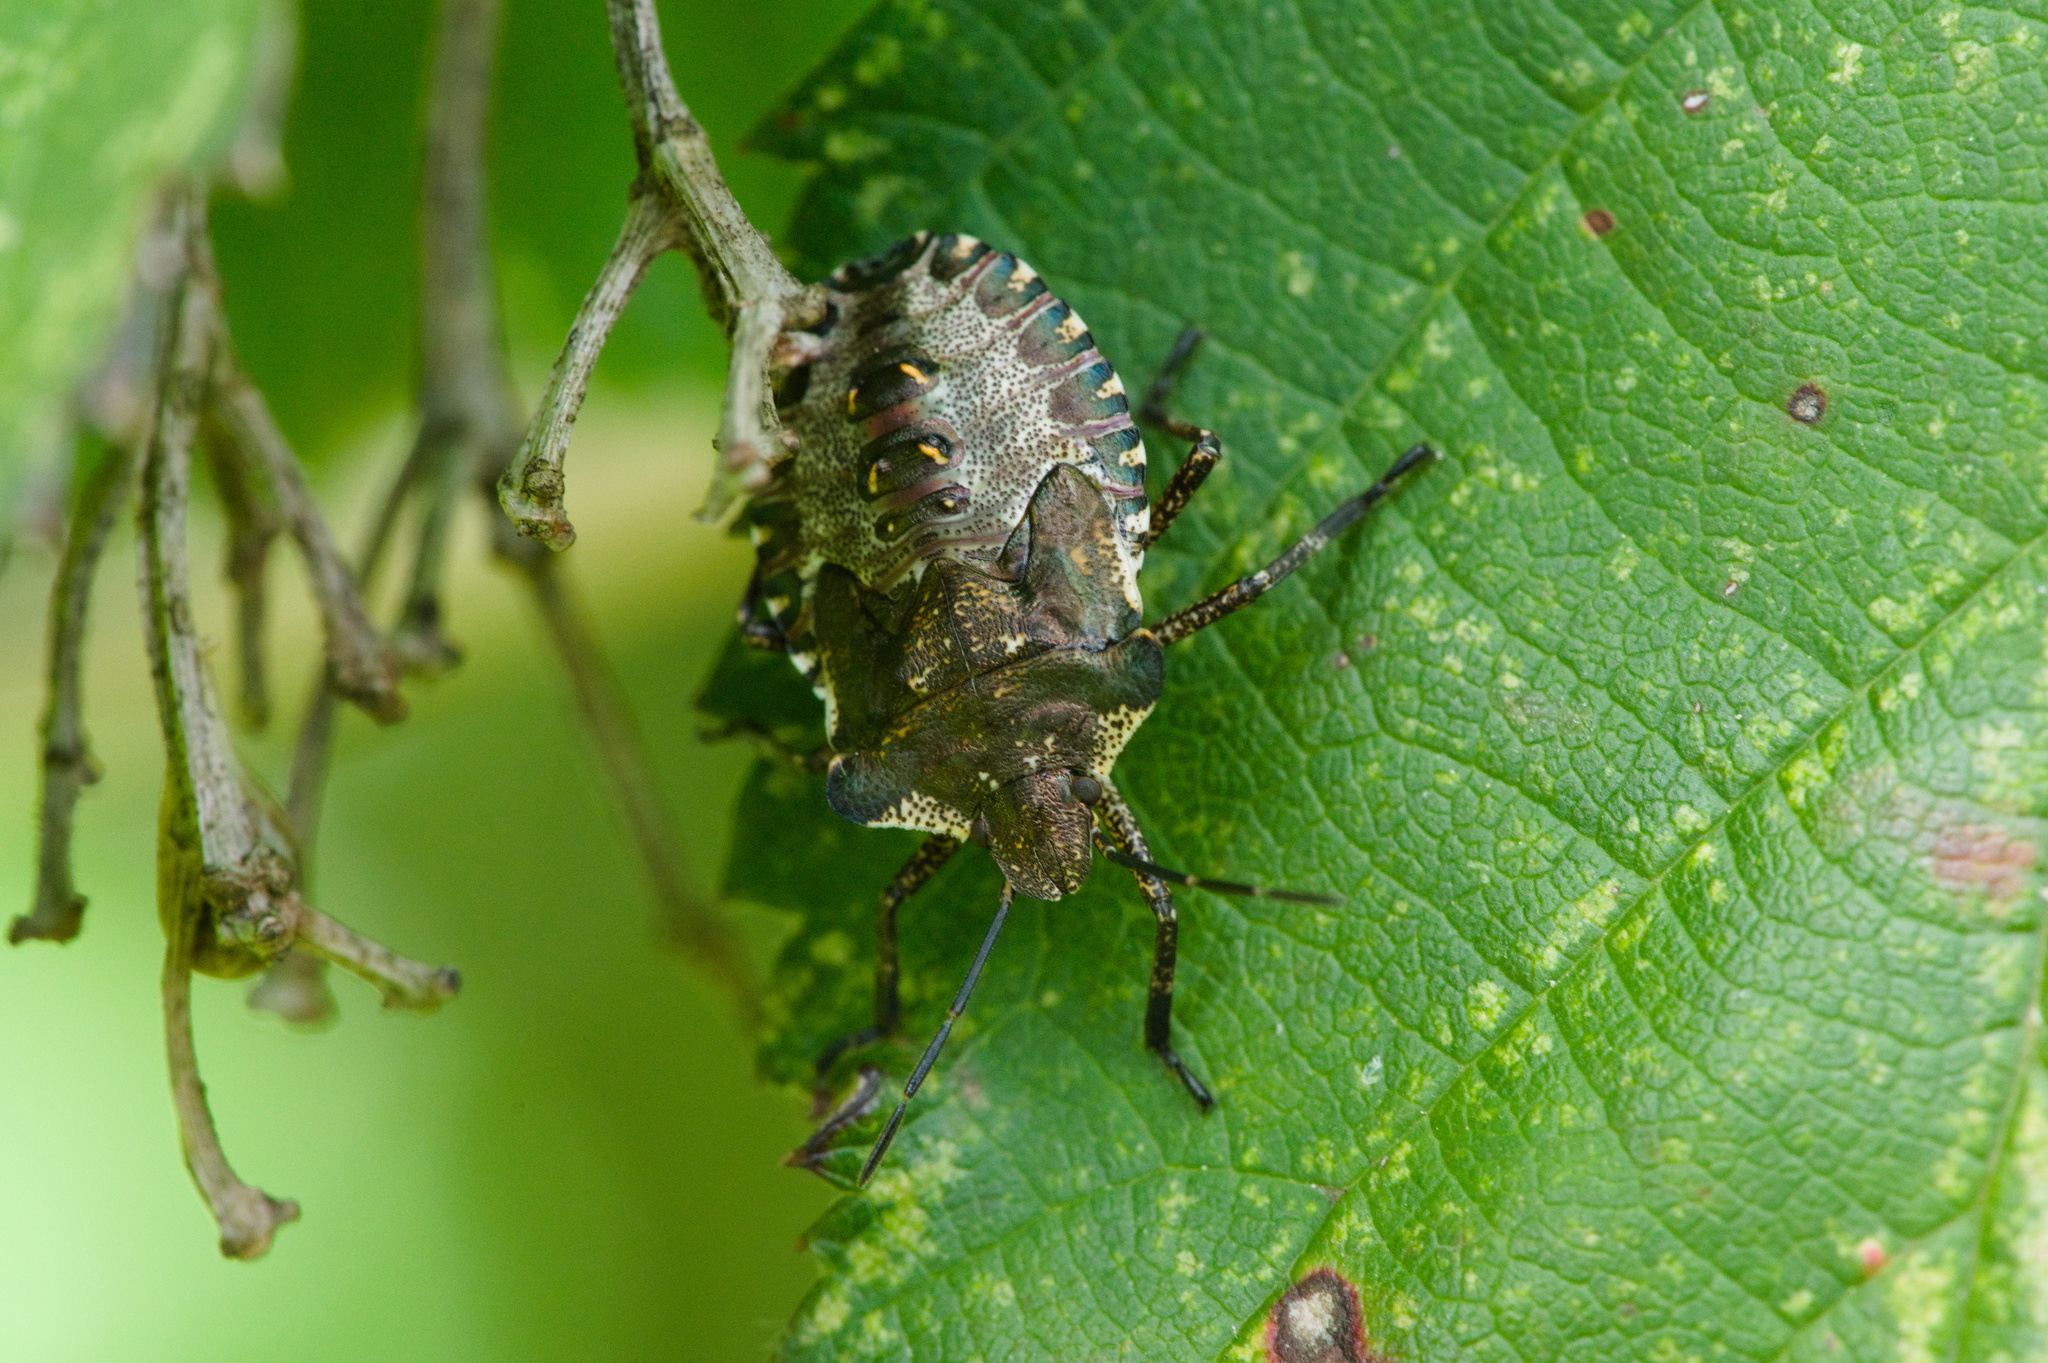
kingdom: Animalia
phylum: Arthropoda
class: Insecta
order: Hemiptera
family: Pentatomidae
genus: Pentatoma
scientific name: Pentatoma rufipes
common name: Forest bug
